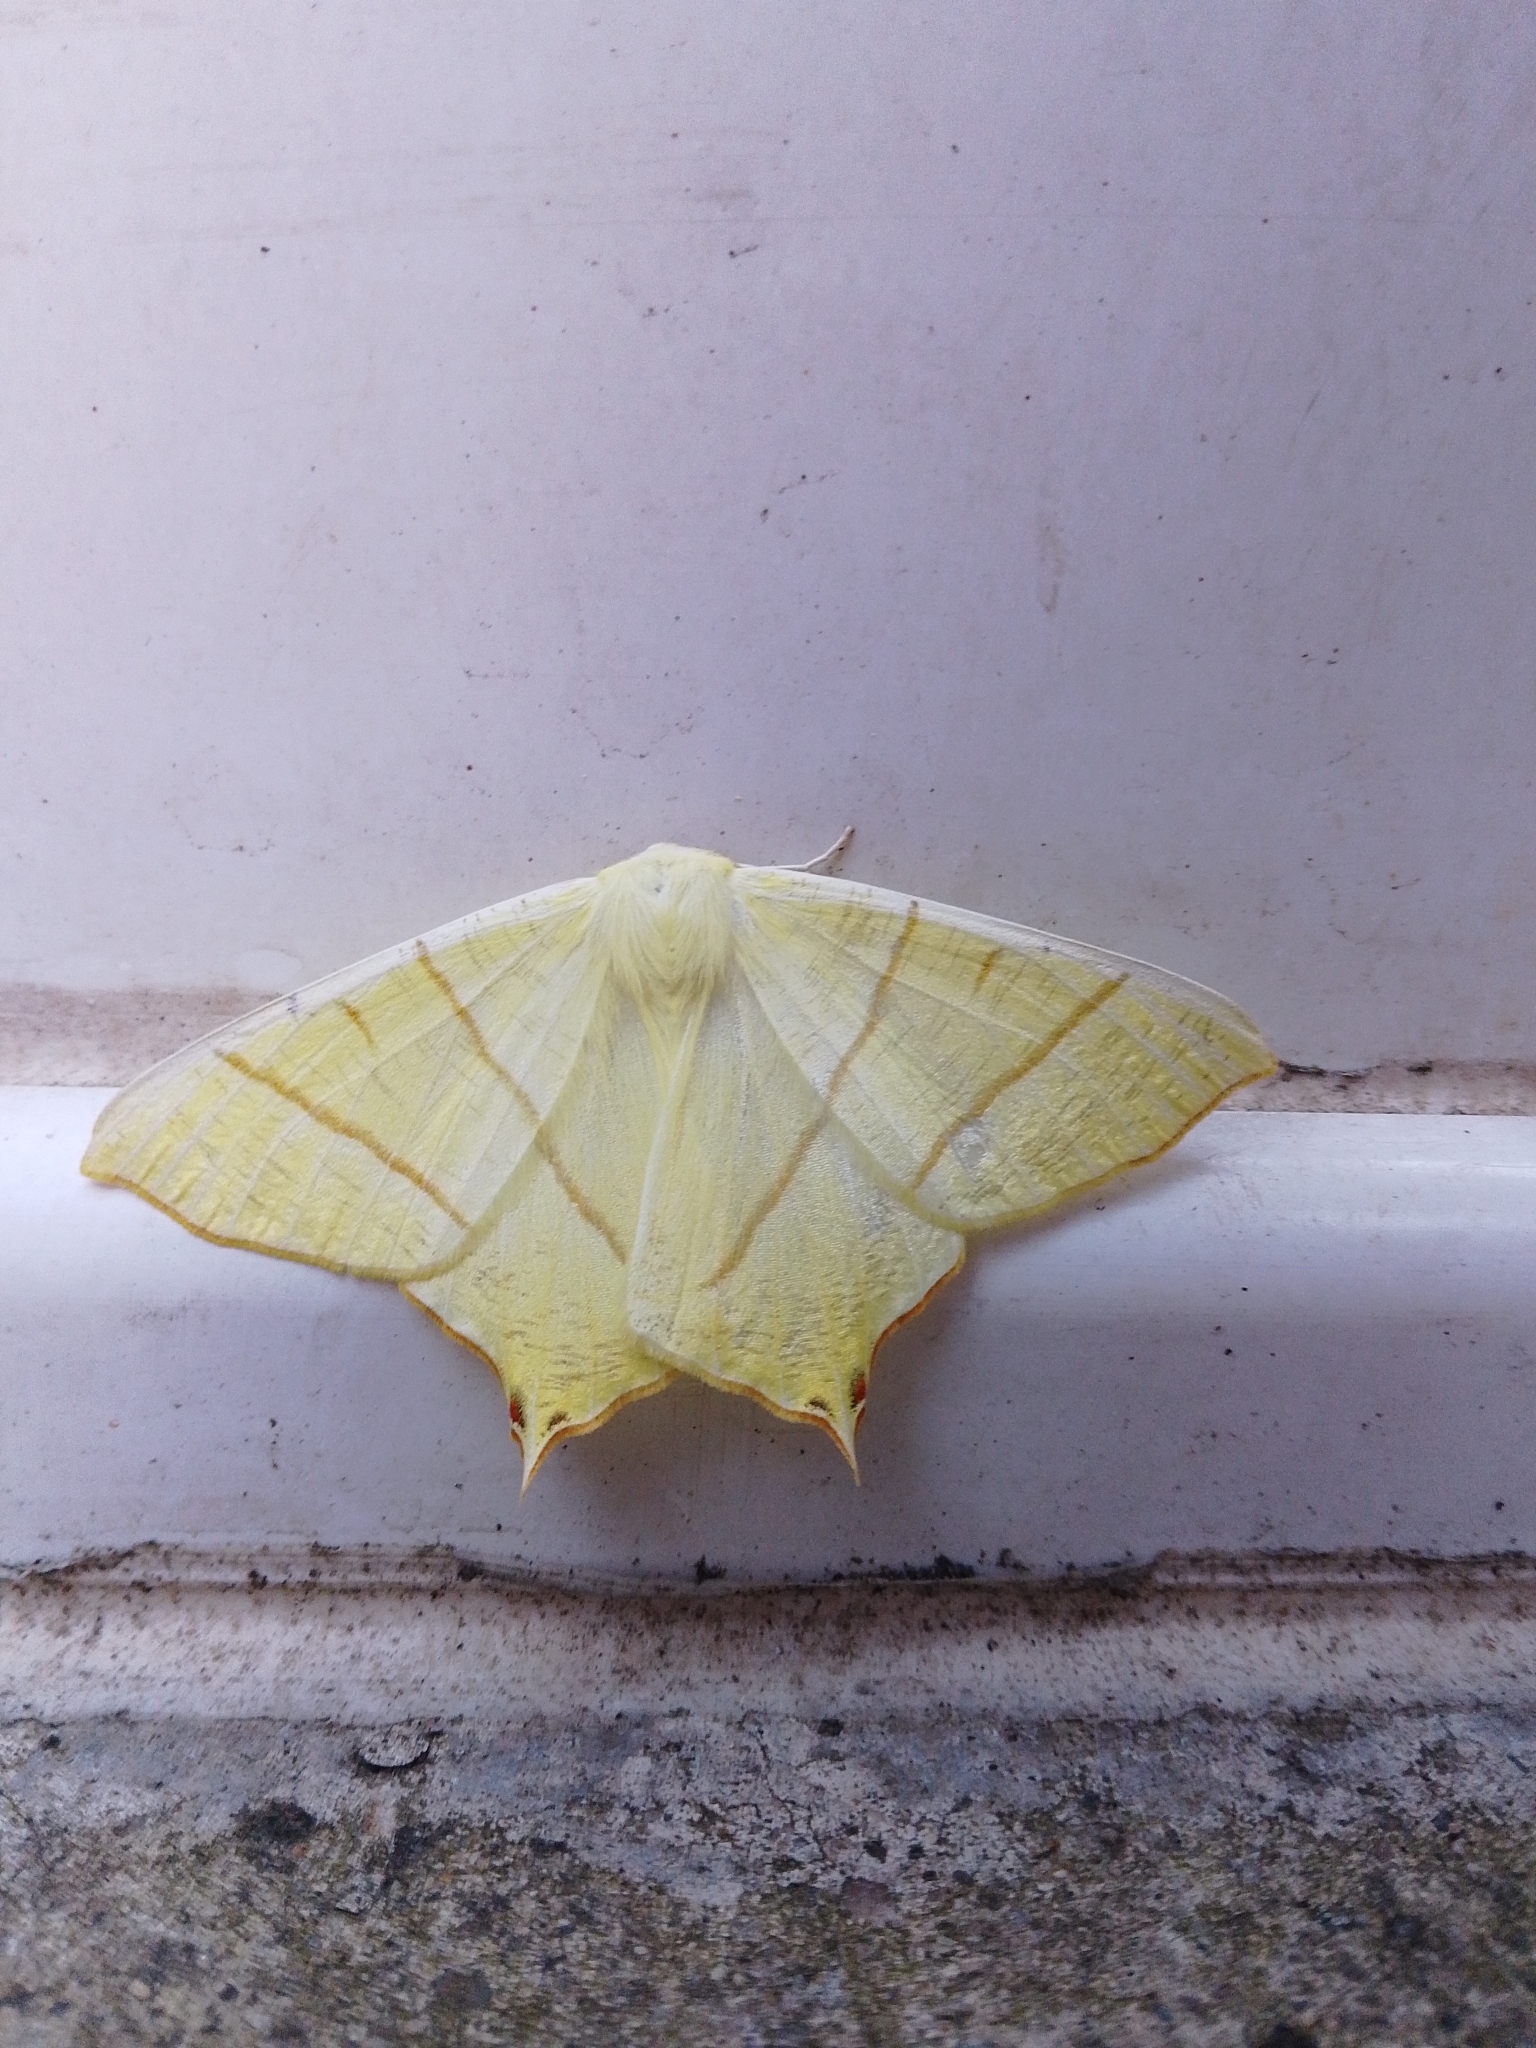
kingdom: Animalia
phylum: Arthropoda
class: Insecta
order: Lepidoptera
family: Geometridae
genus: Ourapteryx
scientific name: Ourapteryx sambucaria
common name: Swallow-tailed moth
